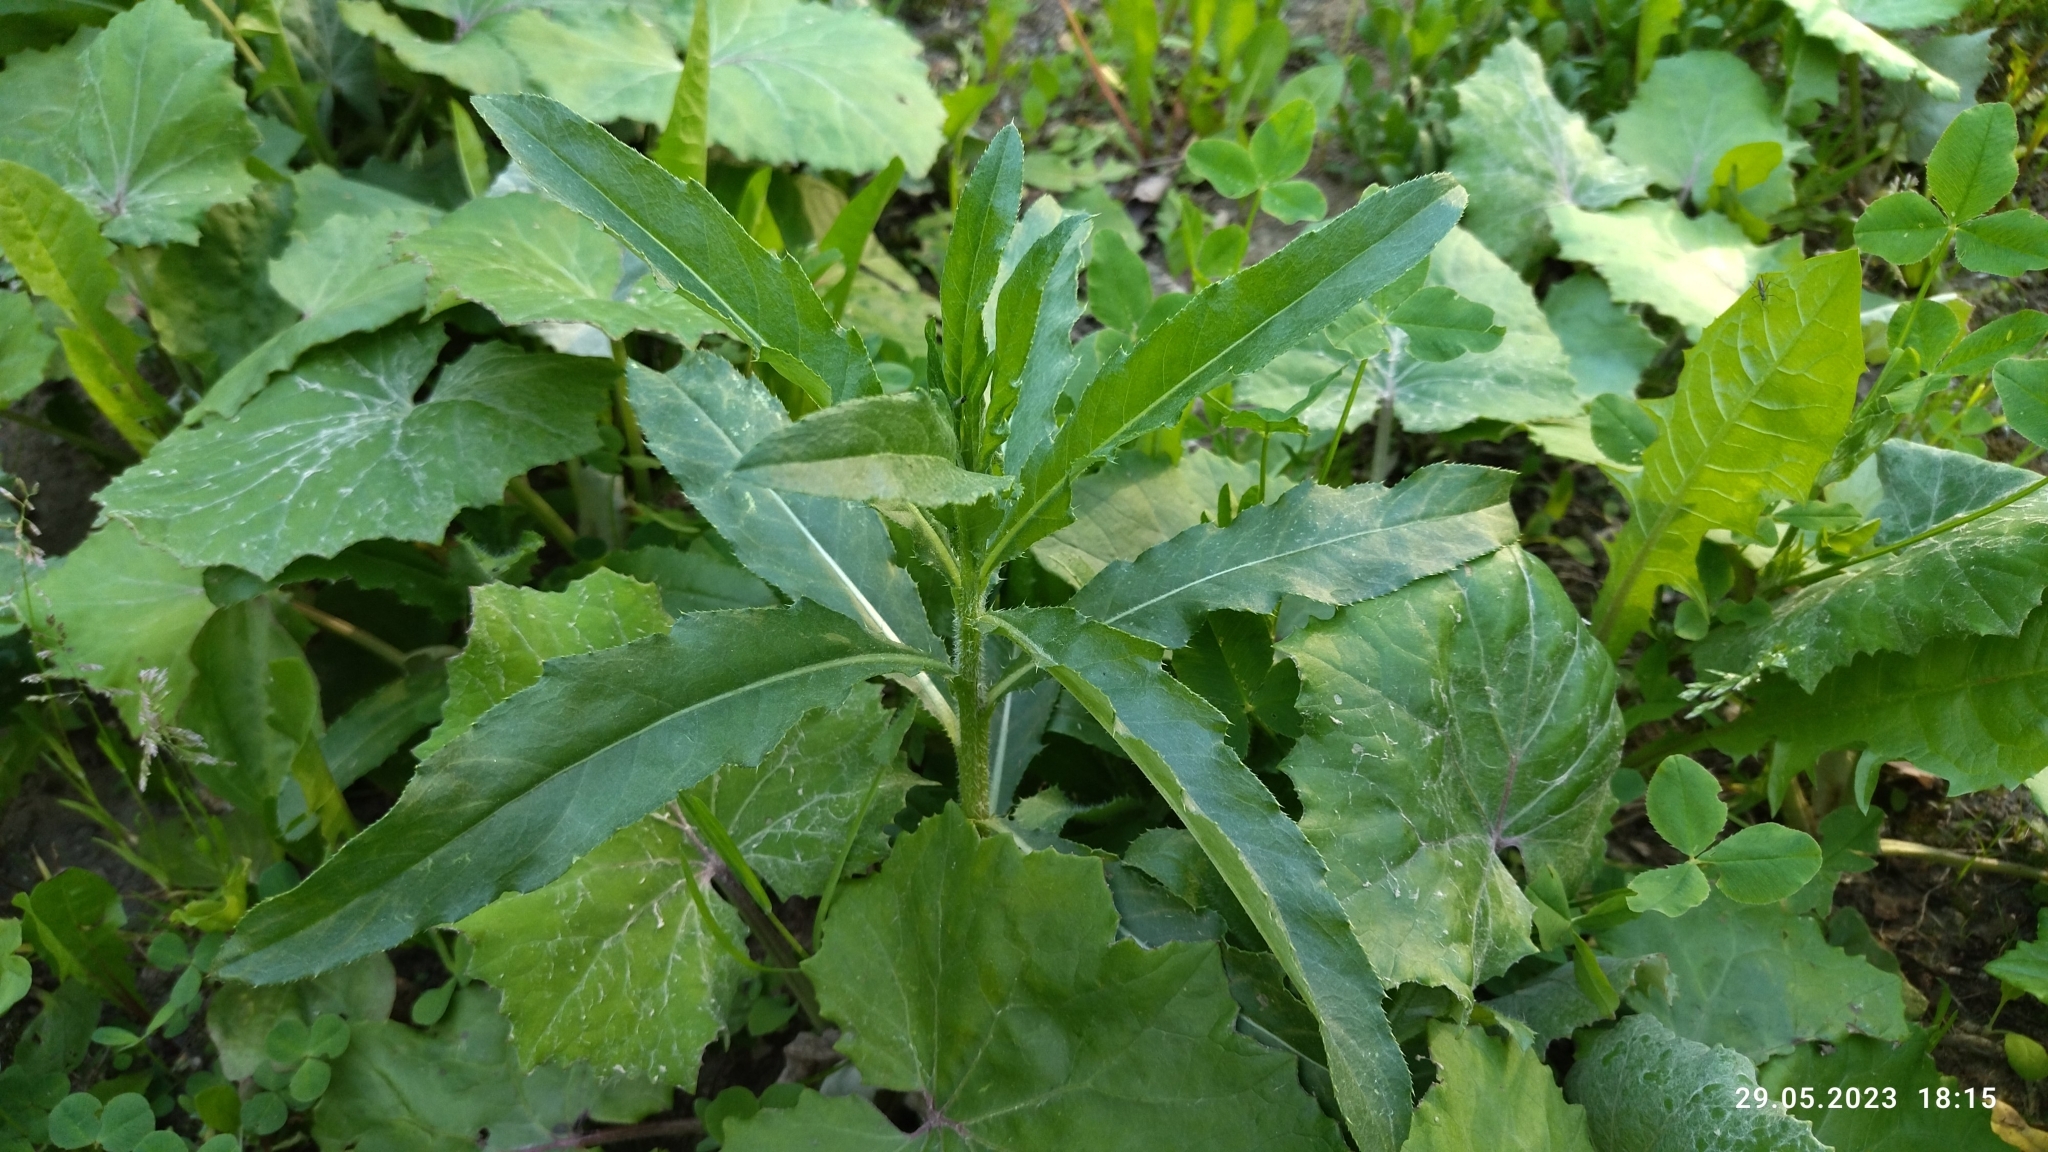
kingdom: Plantae
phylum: Tracheophyta
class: Magnoliopsida
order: Asterales
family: Asteraceae
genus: Cirsium
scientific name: Cirsium arvense
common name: Creeping thistle
